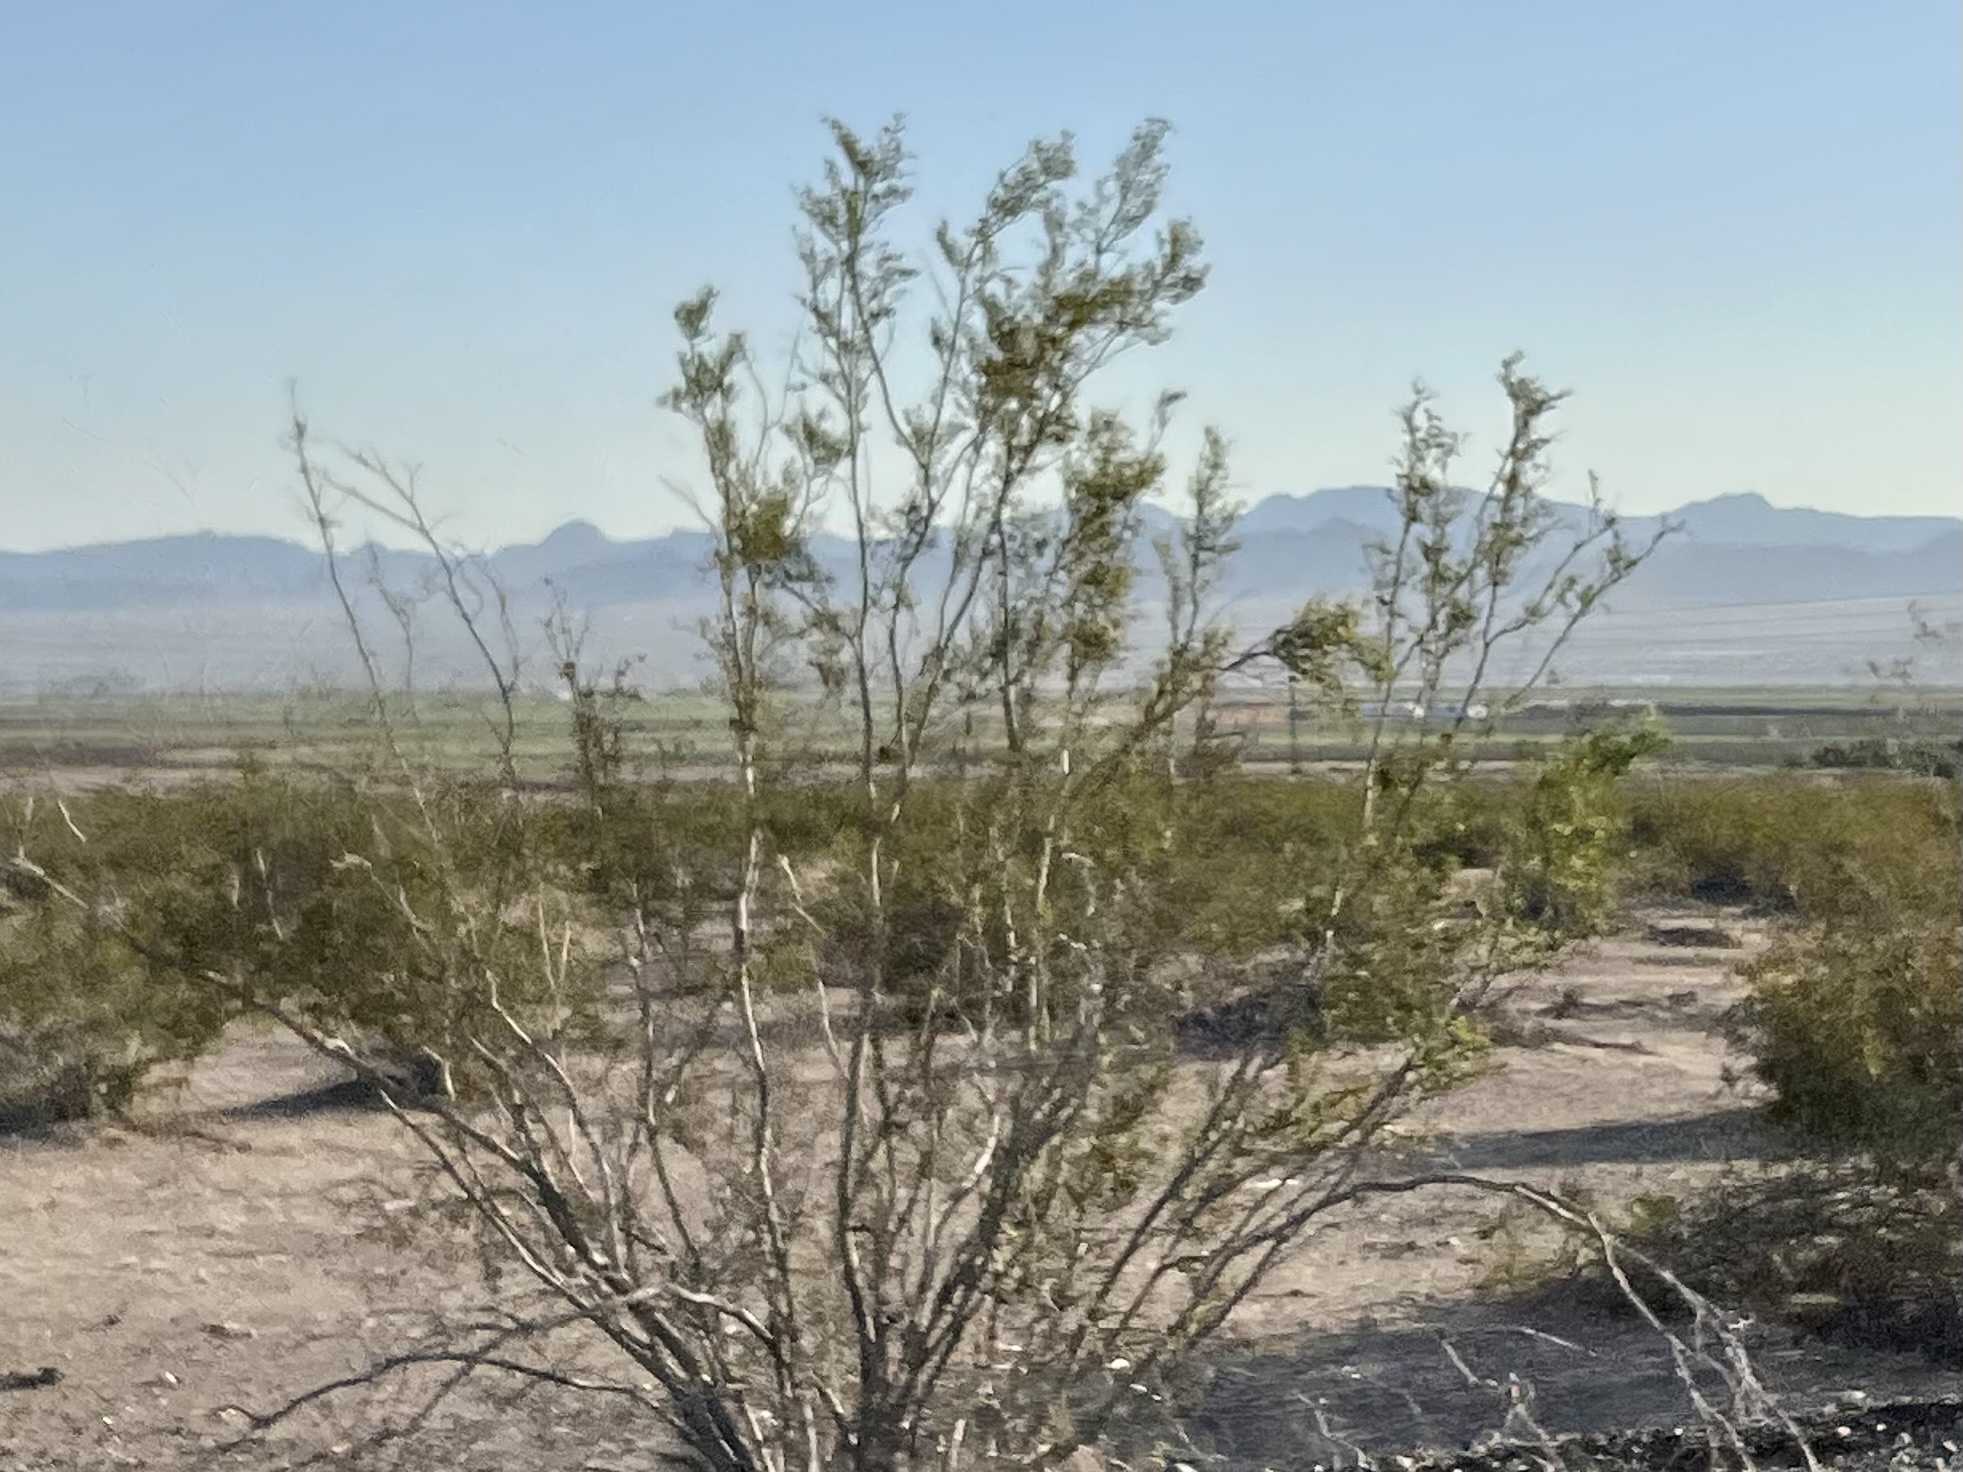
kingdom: Plantae
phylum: Tracheophyta
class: Magnoliopsida
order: Zygophyllales
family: Zygophyllaceae
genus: Larrea
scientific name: Larrea tridentata
